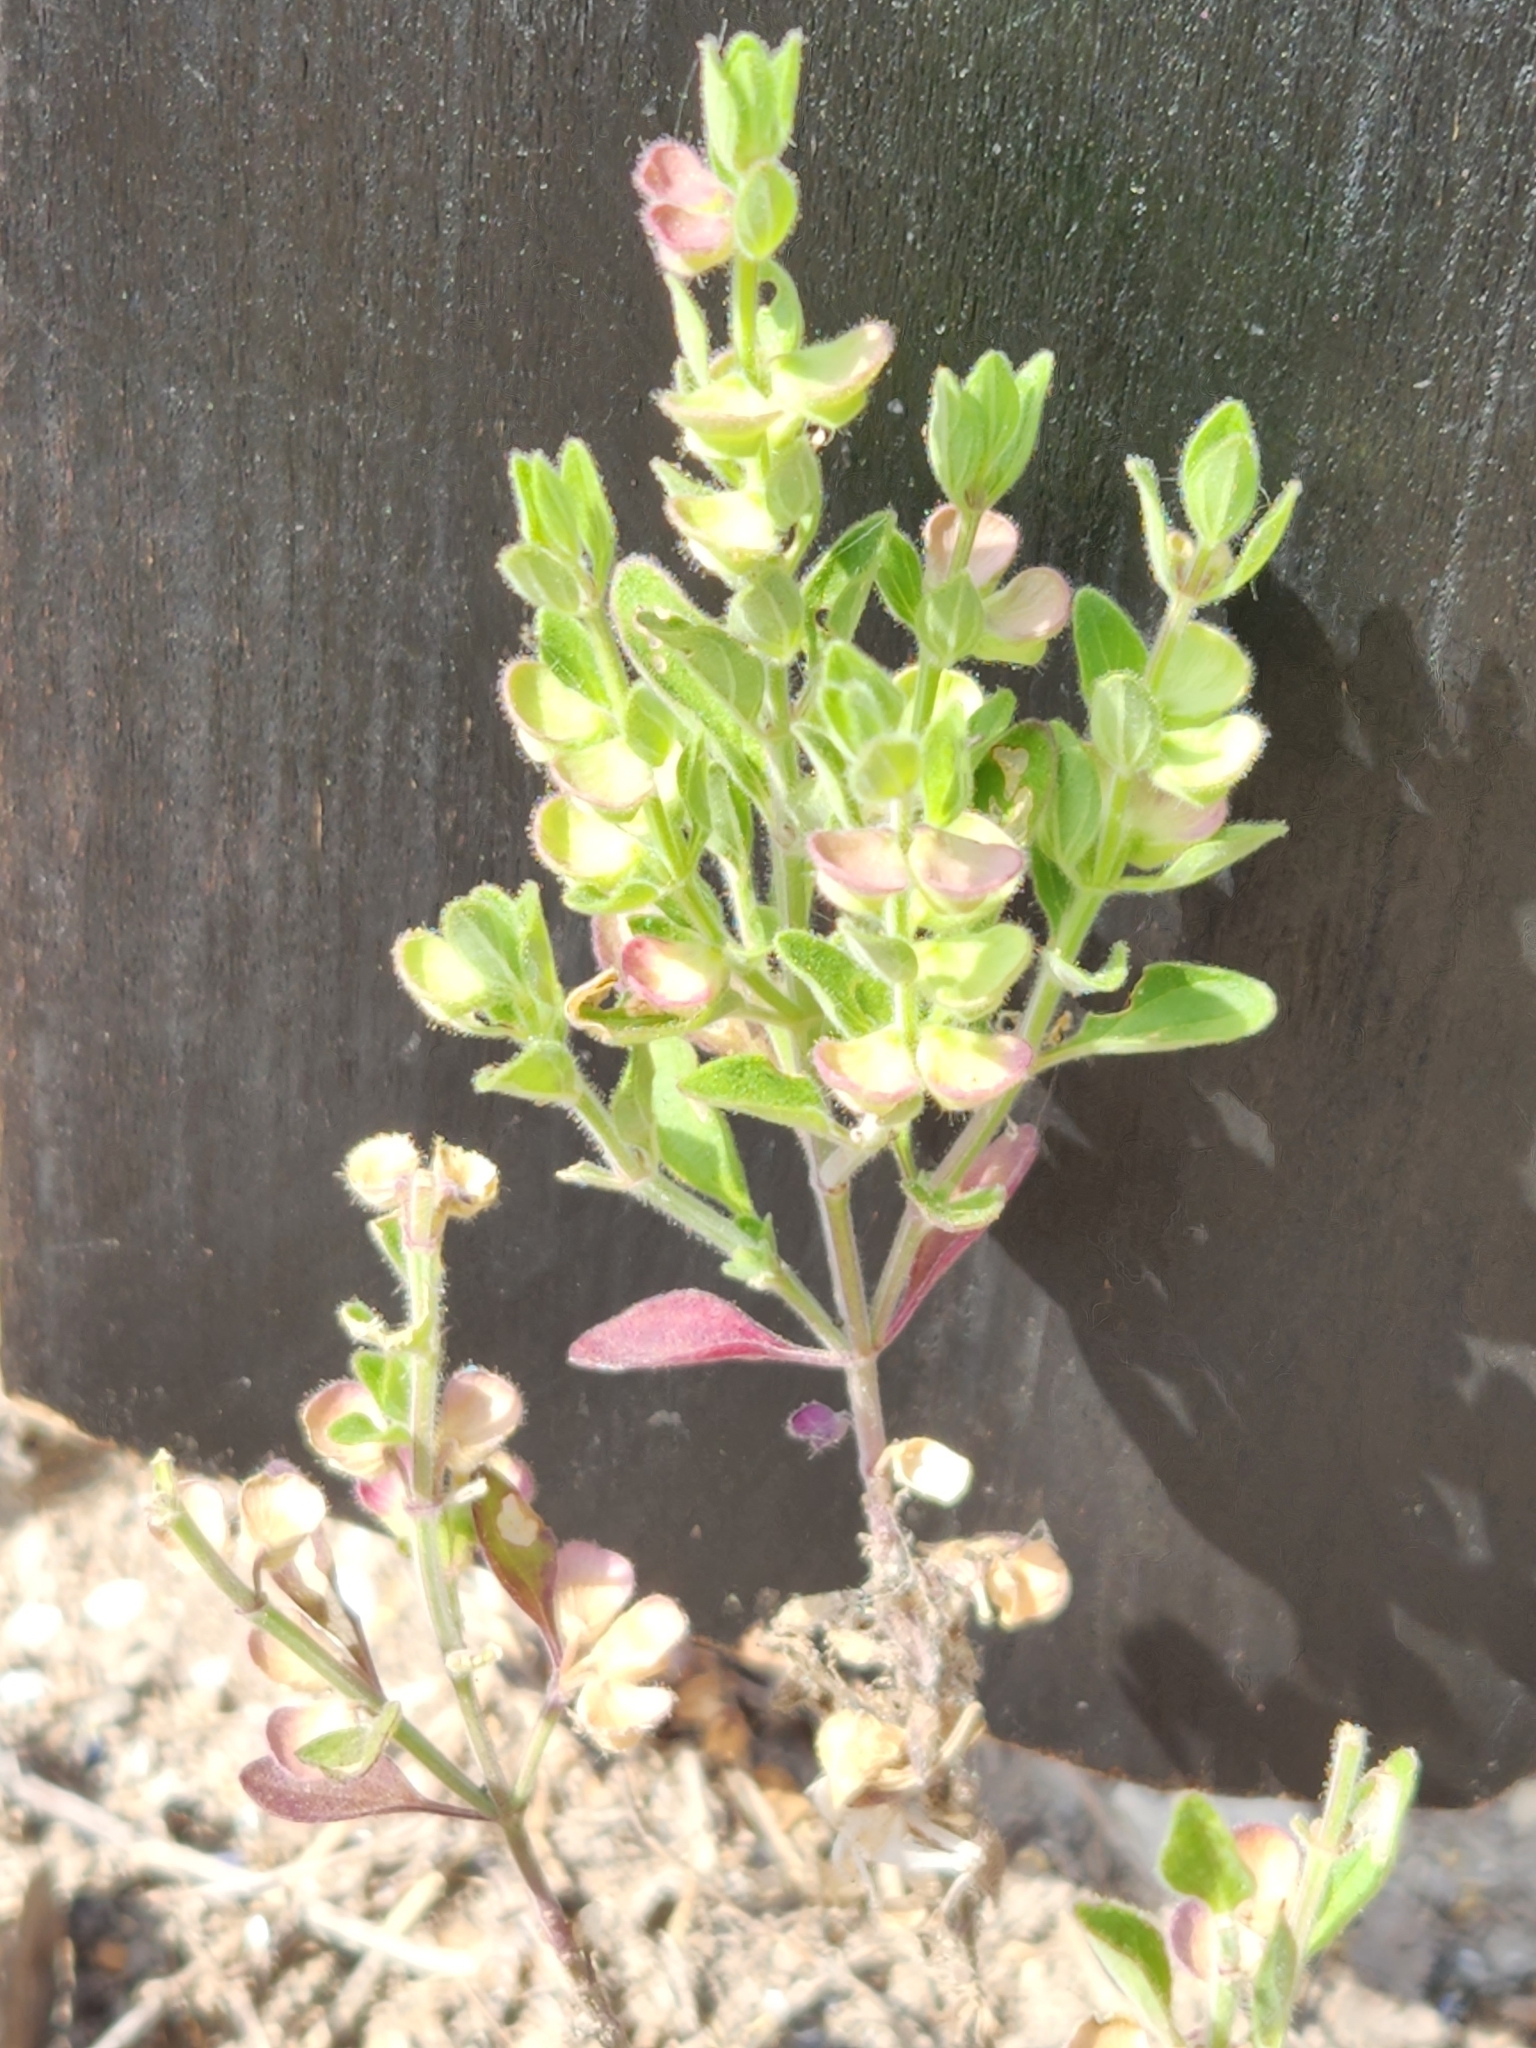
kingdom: Plantae
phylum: Tracheophyta
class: Magnoliopsida
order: Lamiales
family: Lamiaceae
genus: Scutellaria
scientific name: Scutellaria drummondii
